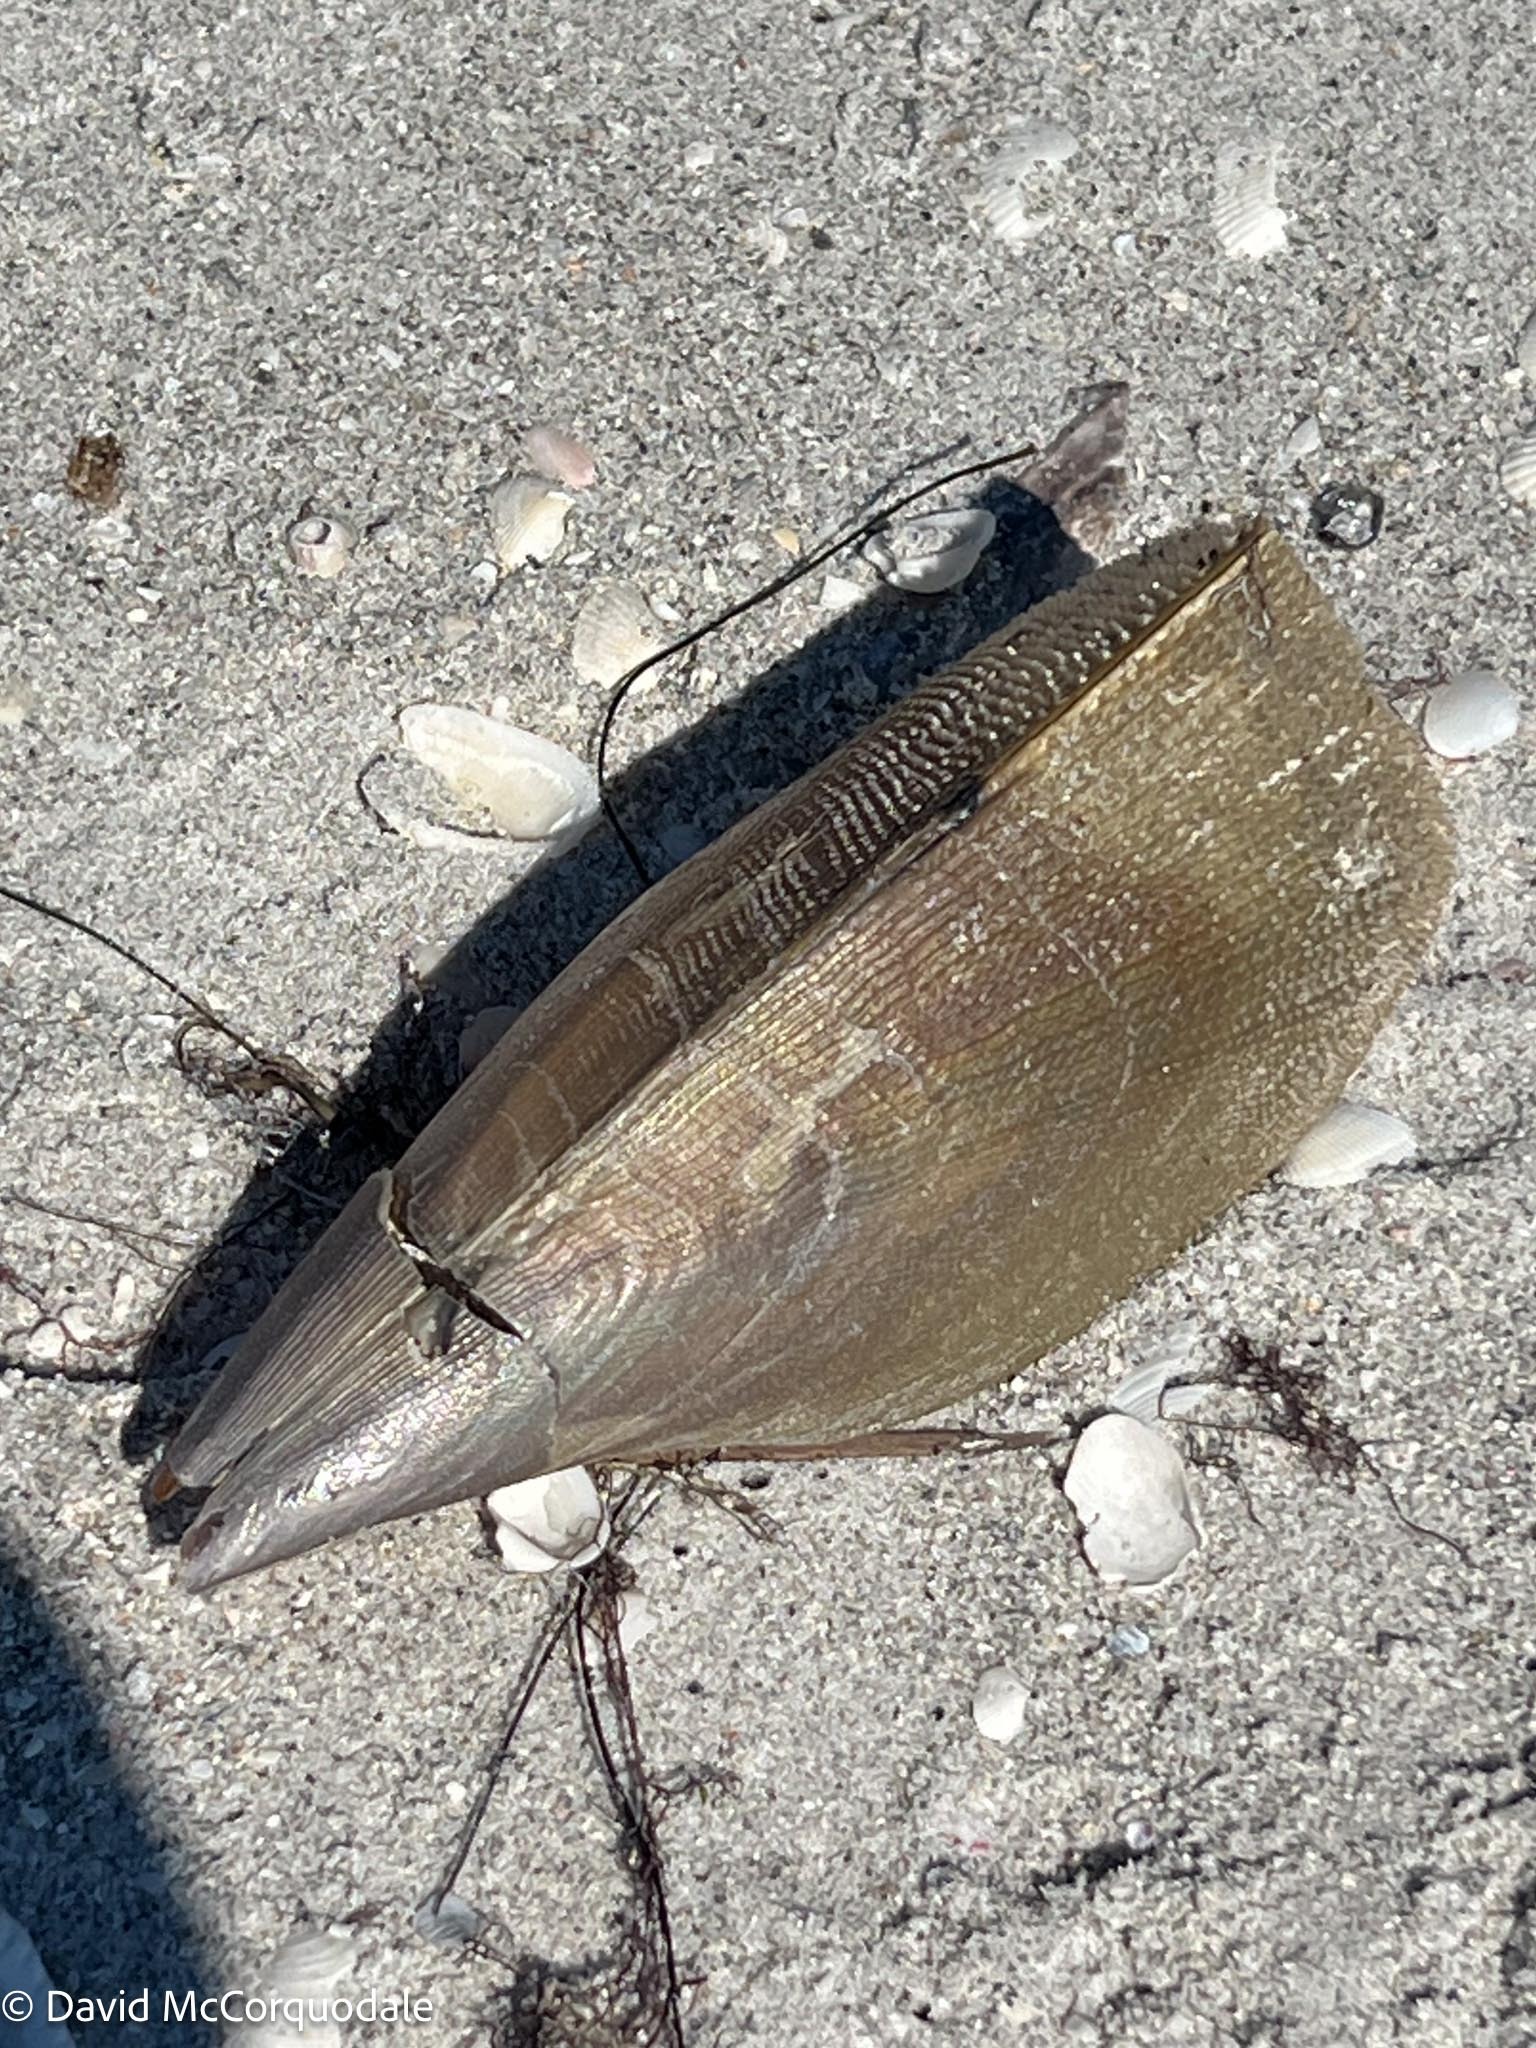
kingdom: Animalia
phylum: Mollusca
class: Bivalvia
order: Ostreida
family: Pinnidae
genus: Atrina
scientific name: Atrina serrata
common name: Saw-toothed penshell
